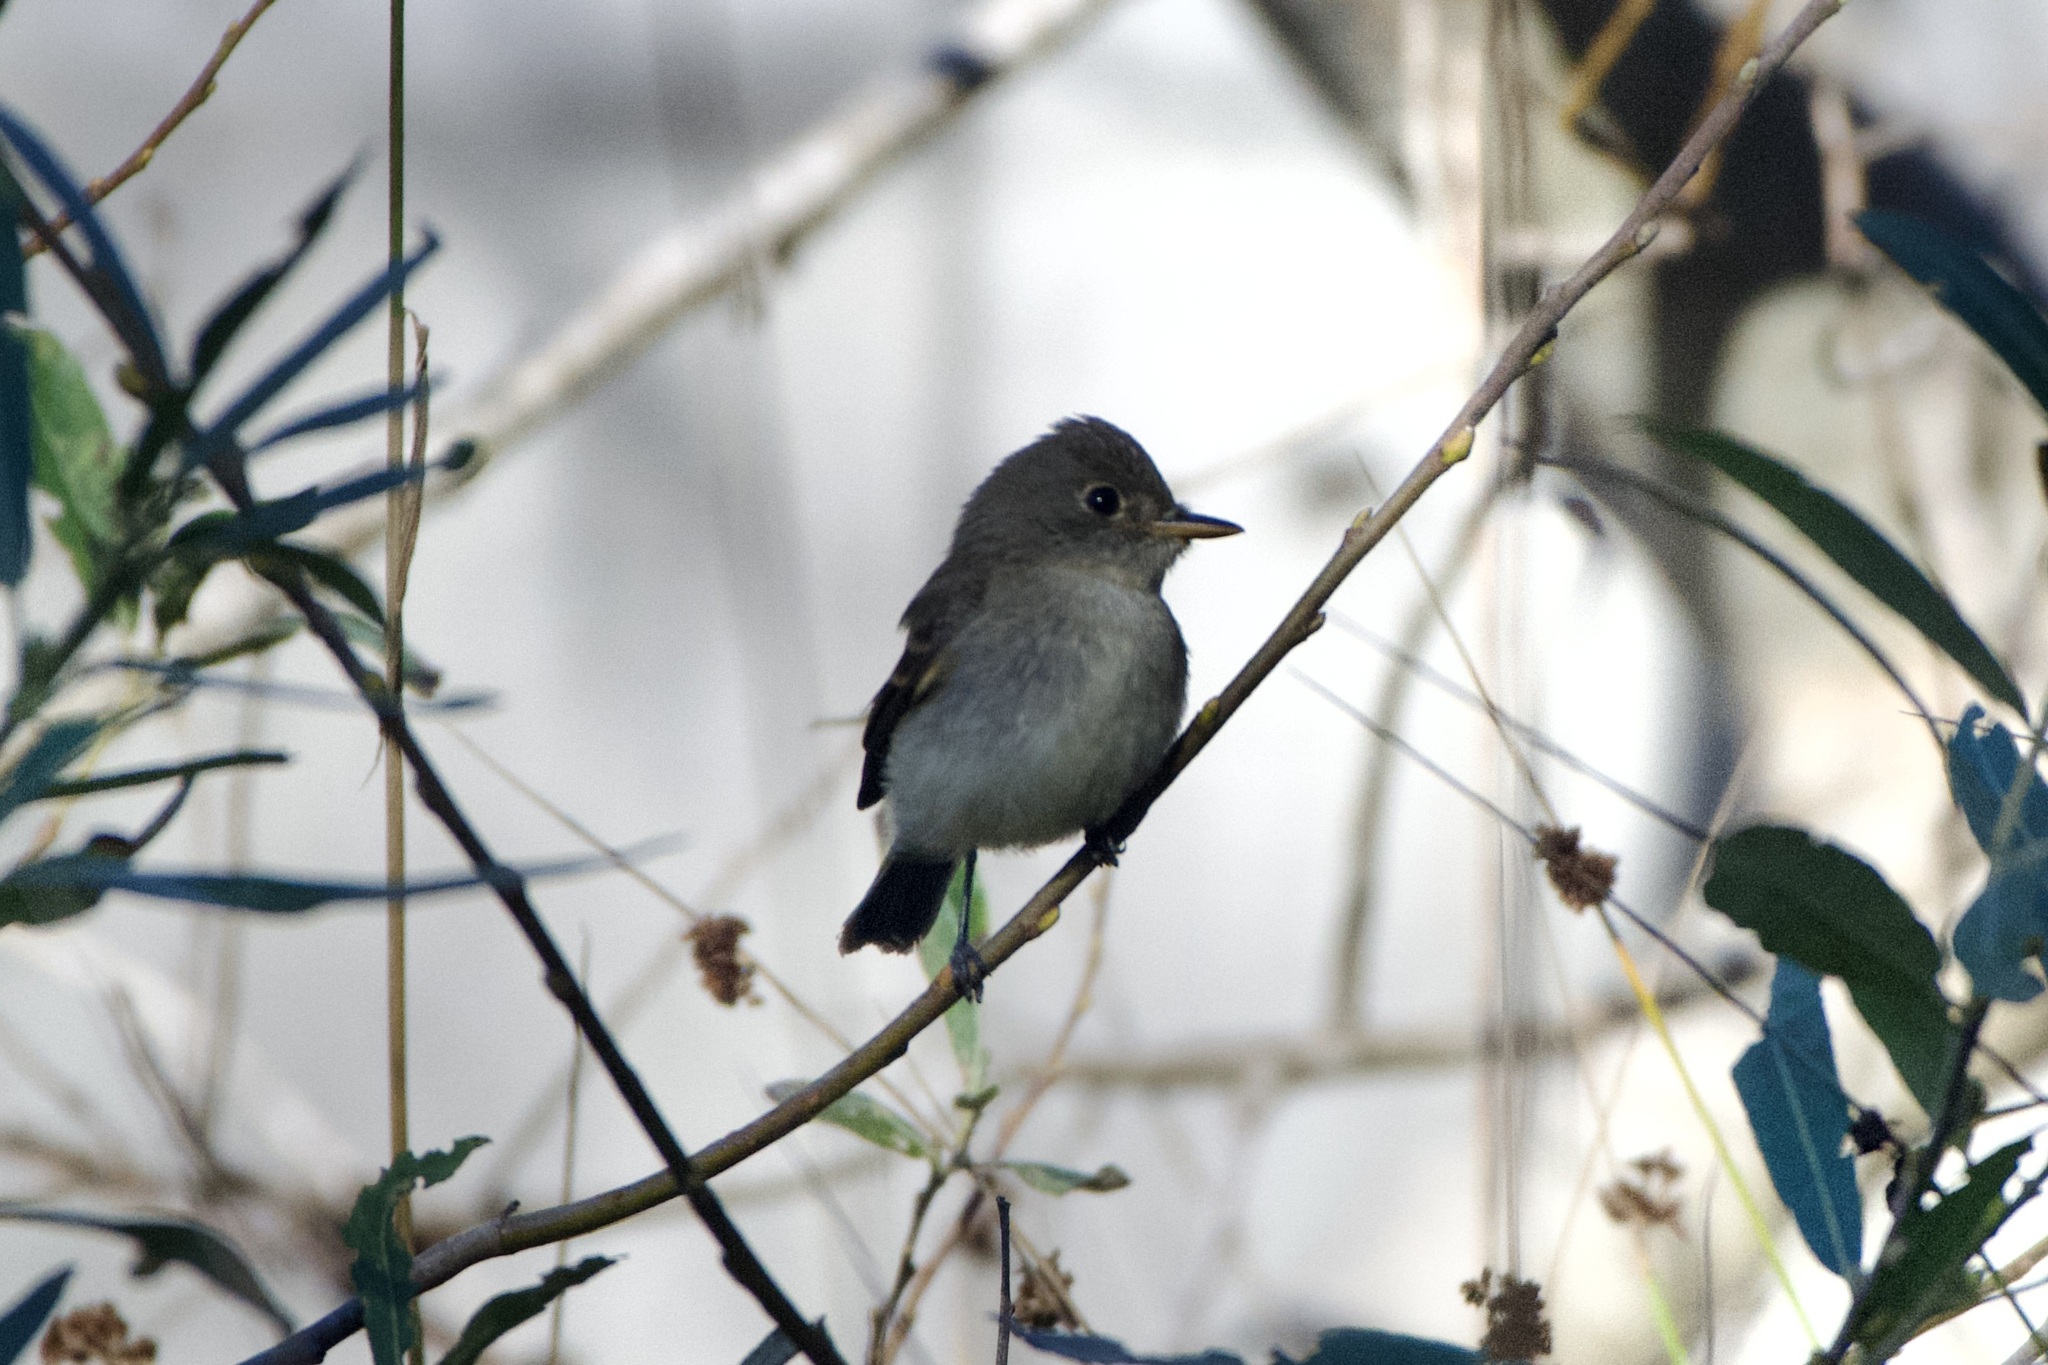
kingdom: Animalia
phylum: Chordata
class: Aves
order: Passeriformes
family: Tyrannidae
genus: Empidonax
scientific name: Empidonax traillii
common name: Willow flycatcher
